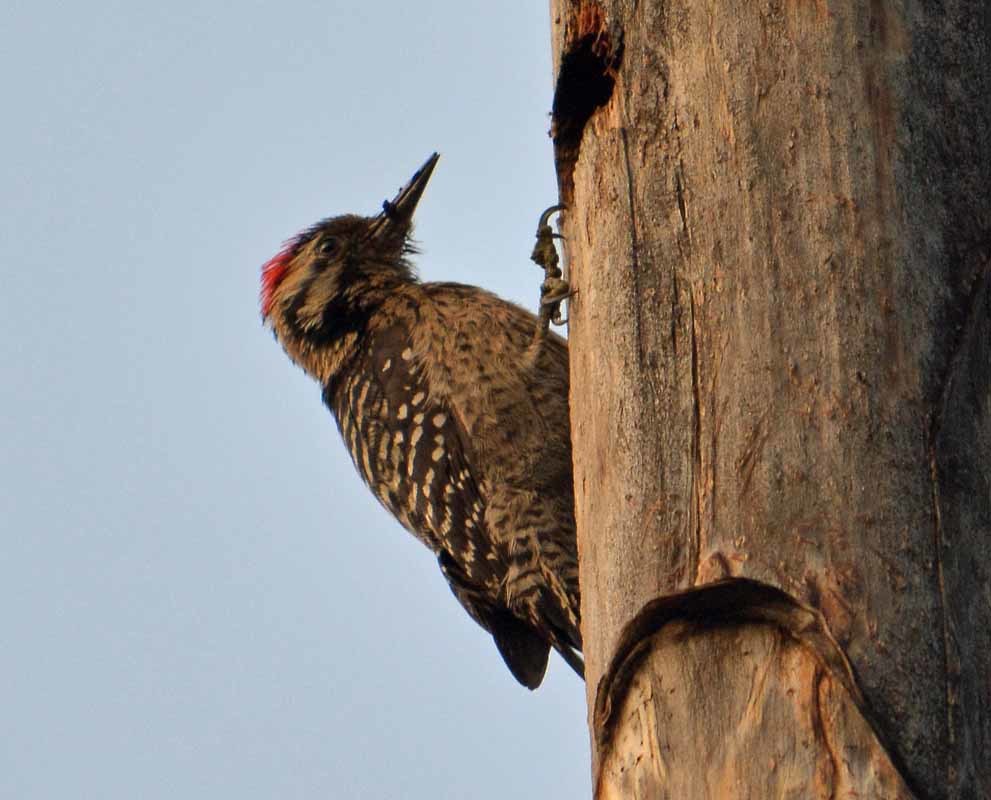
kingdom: Animalia
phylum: Chordata
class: Aves
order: Piciformes
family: Picidae
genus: Dryobates
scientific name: Dryobates scalaris
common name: Ladder-backed woodpecker
